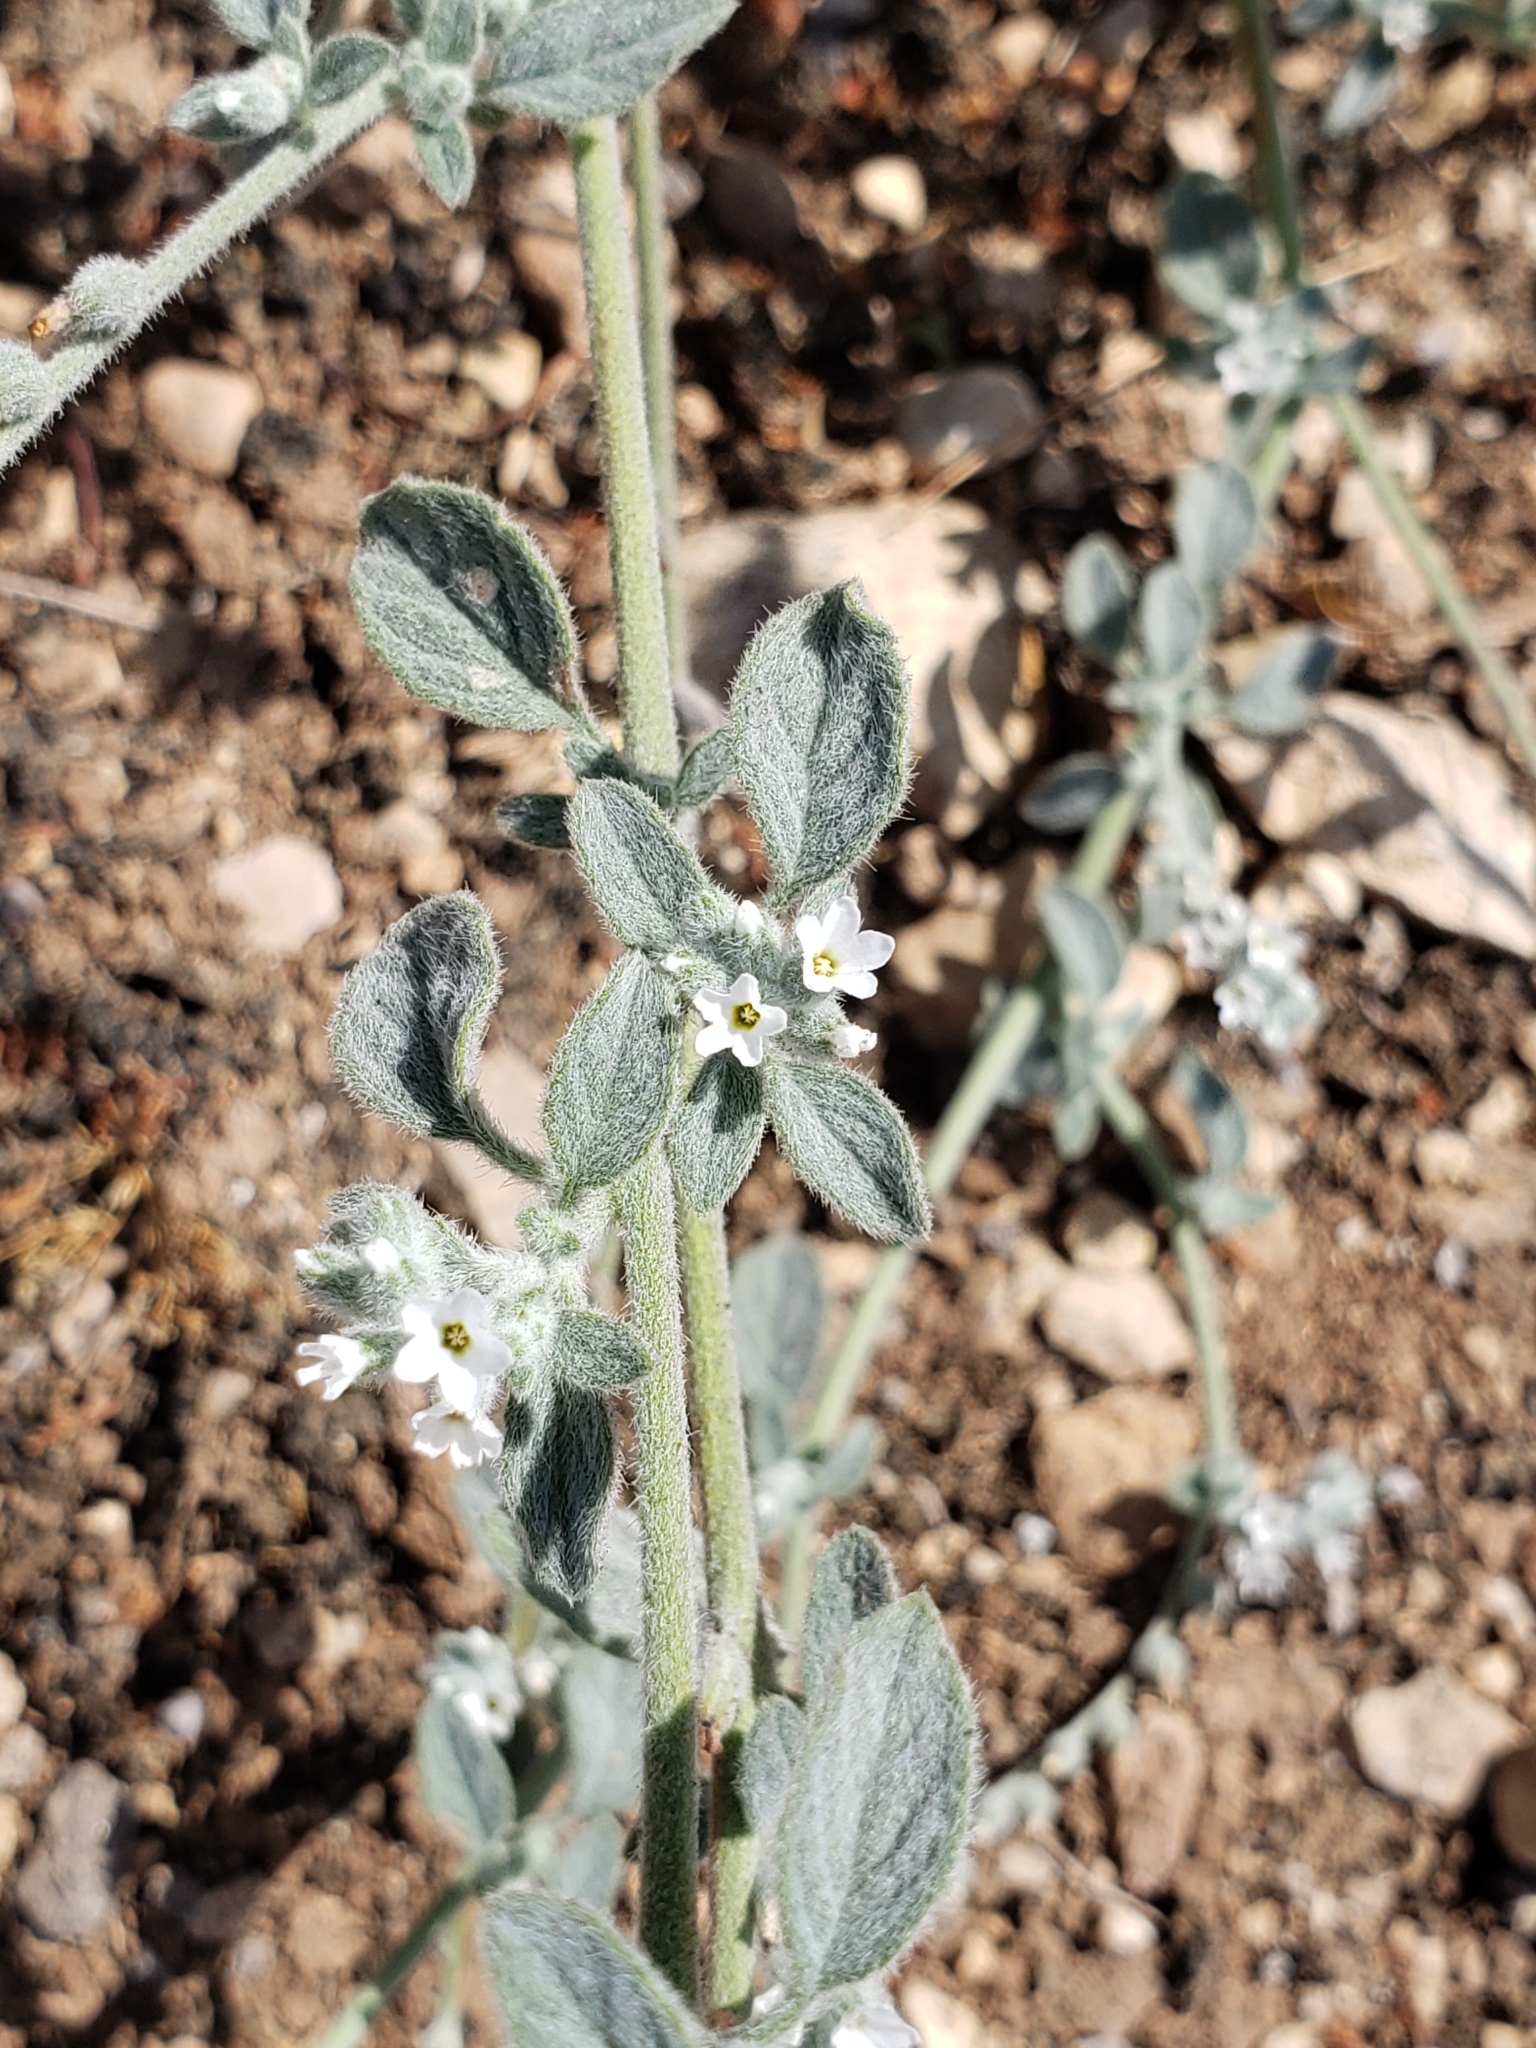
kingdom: Plantae
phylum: Tracheophyta
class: Magnoliopsida
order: Boraginales
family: Heliotropiaceae
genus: Heliotropium
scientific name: Heliotropium europaeum
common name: European heliotrope
